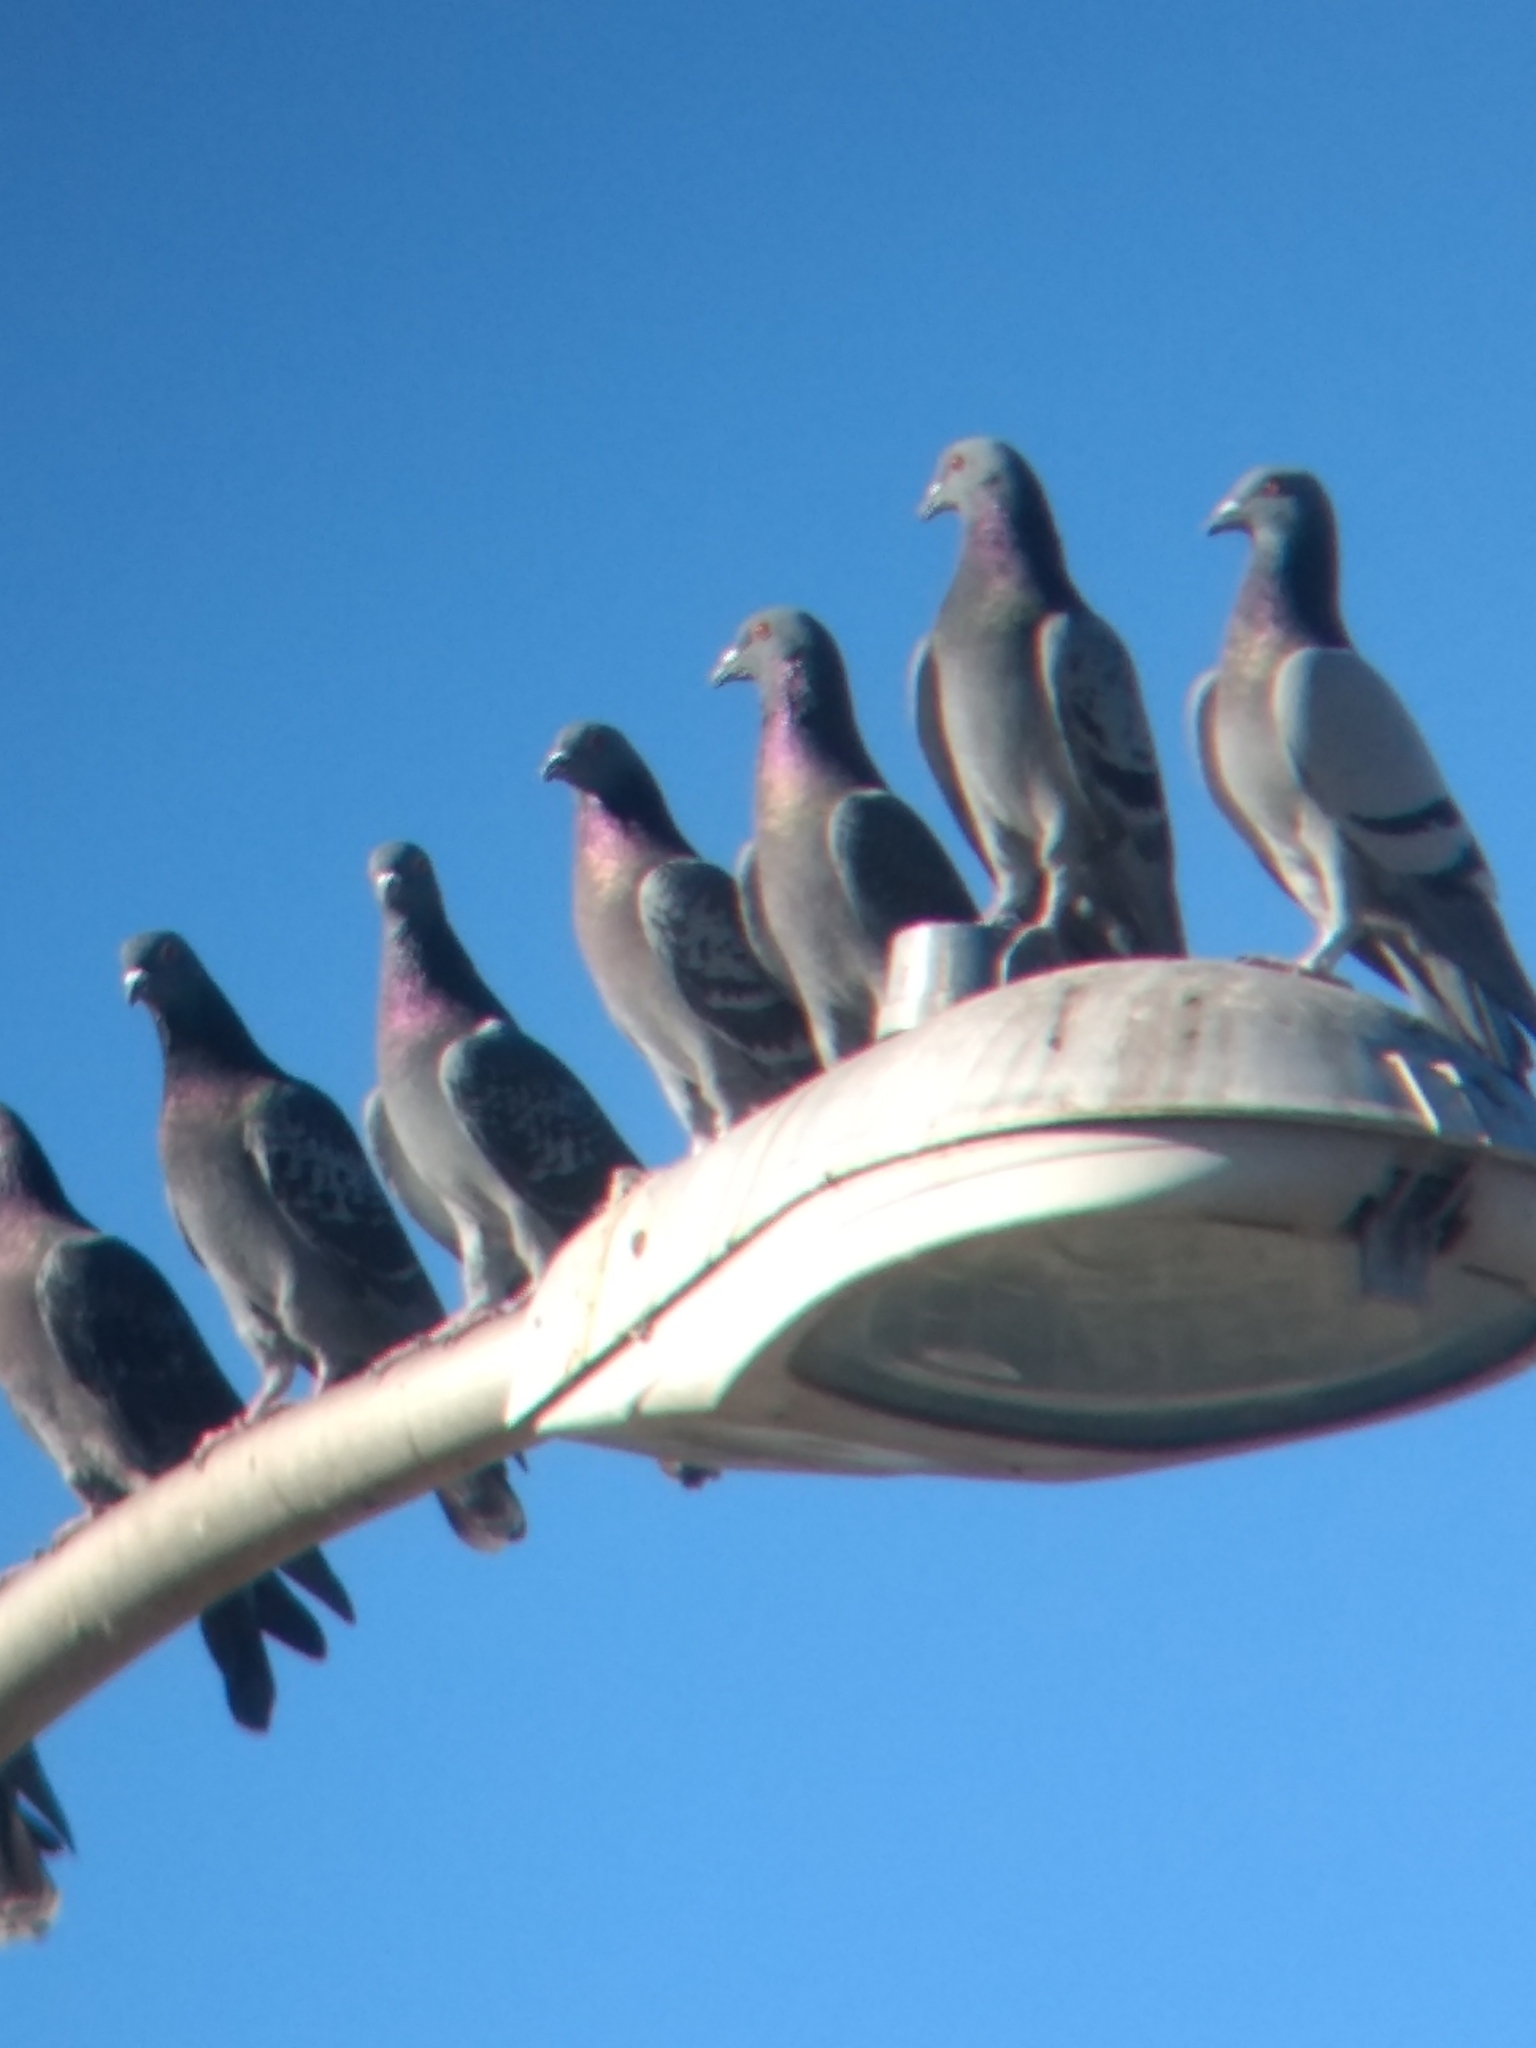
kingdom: Animalia
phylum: Chordata
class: Aves
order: Columbiformes
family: Columbidae
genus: Columba
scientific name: Columba livia
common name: Rock pigeon
